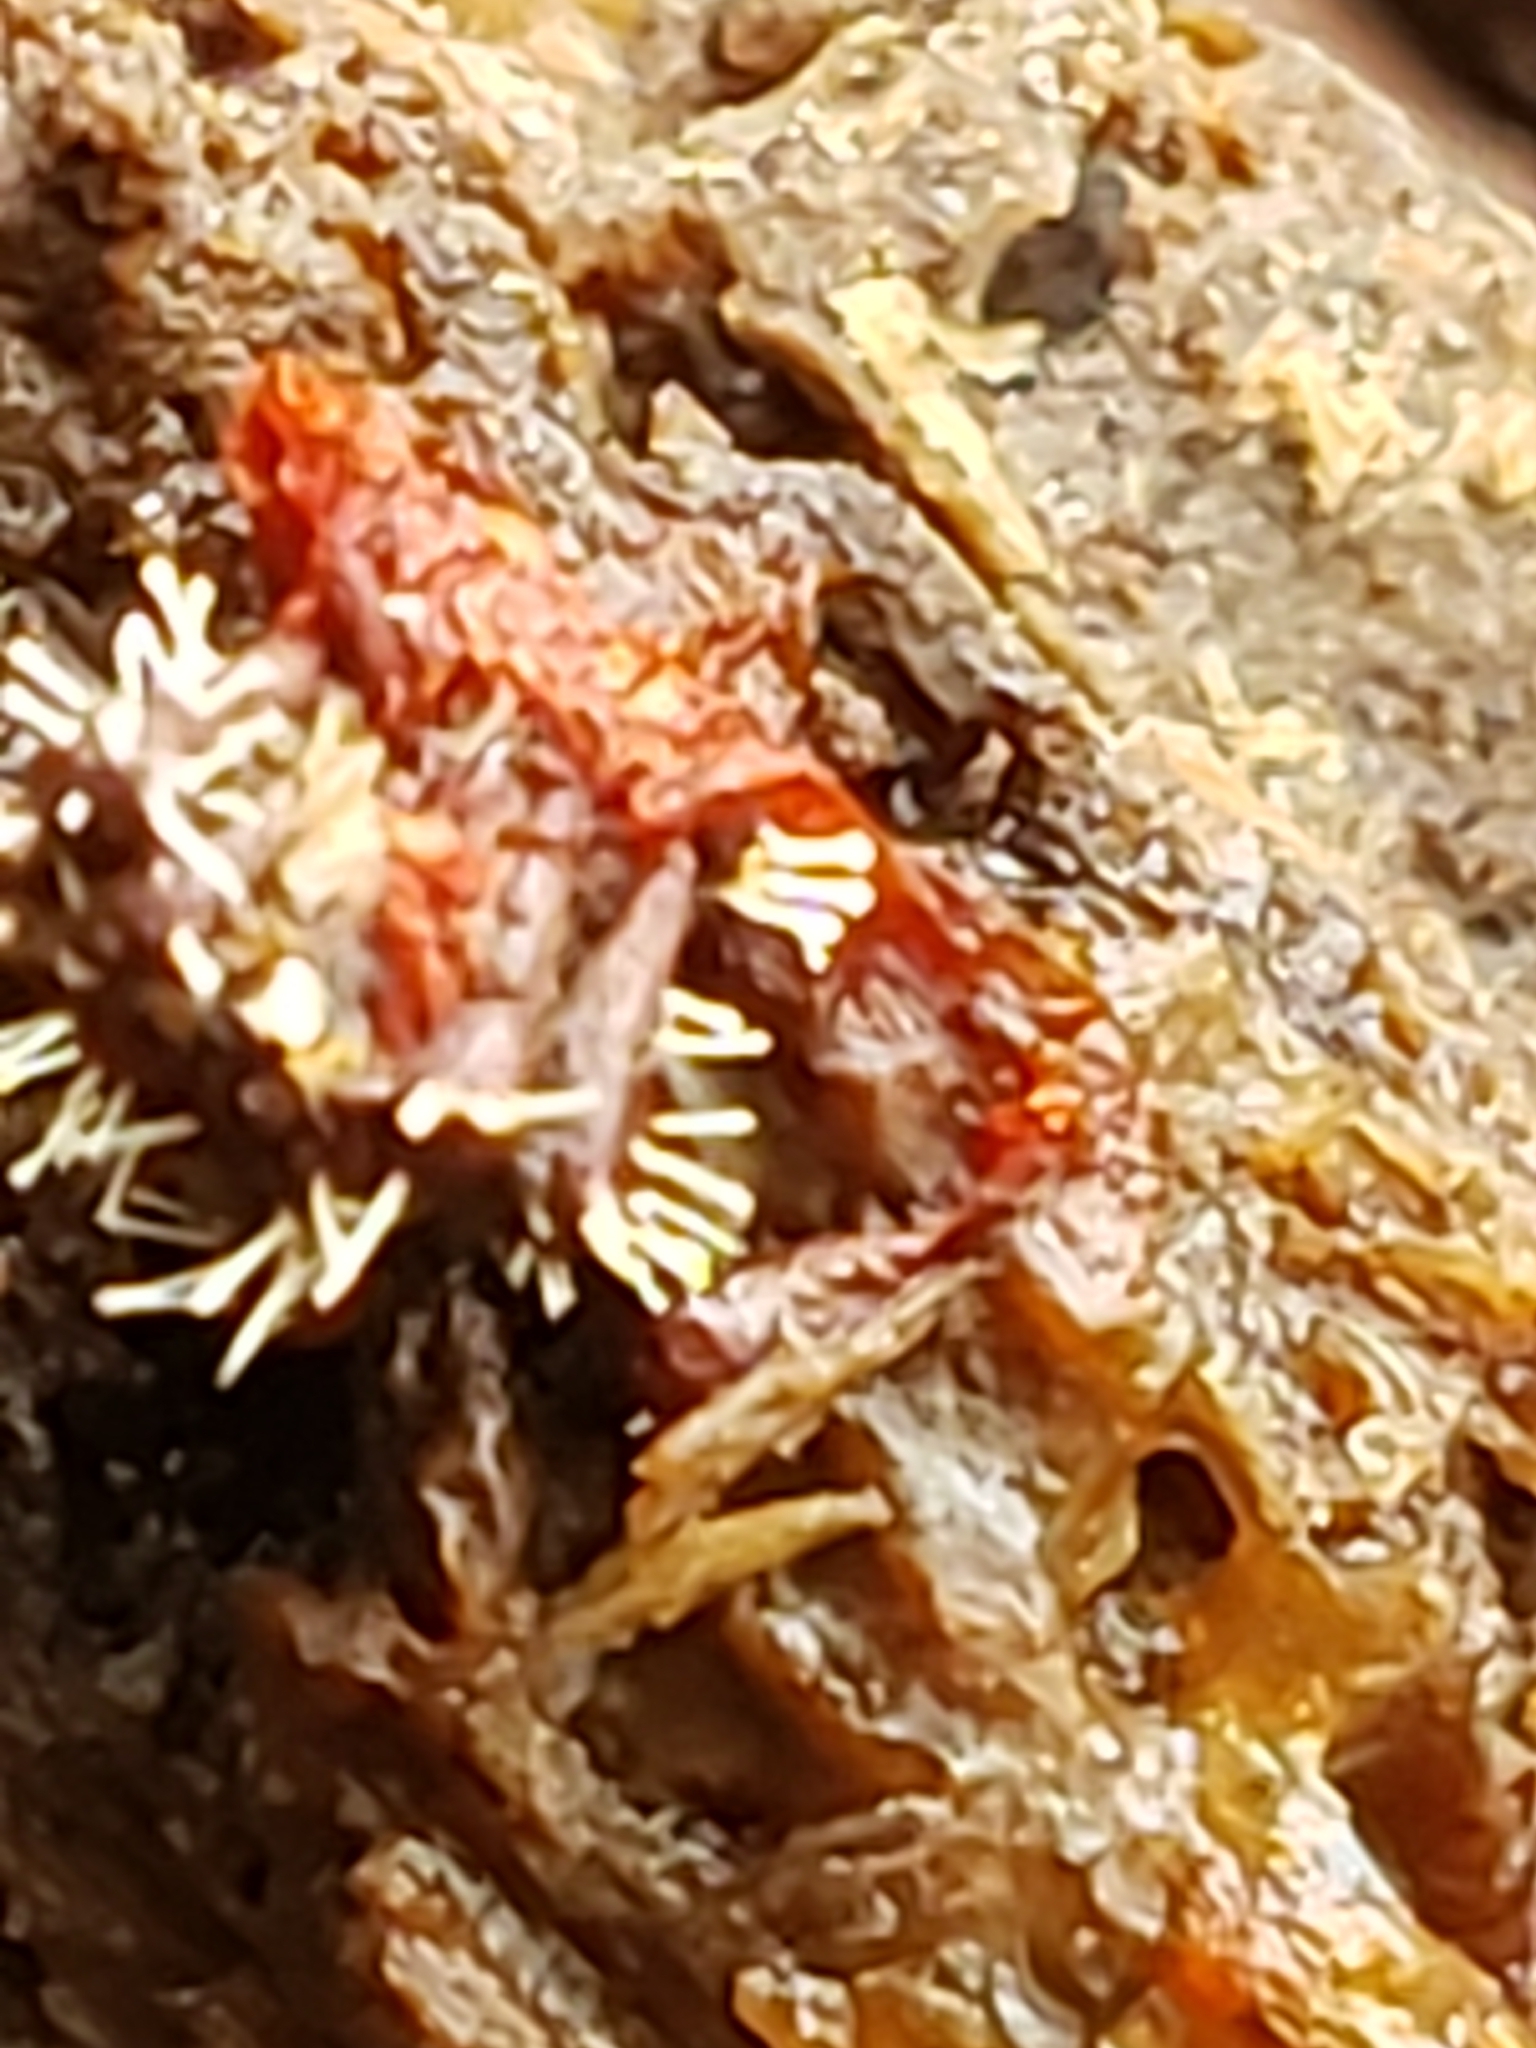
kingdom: Fungi
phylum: Ascomycota
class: Sordariomycetes
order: Hypocreales
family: Ophiocordycipitaceae
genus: Polycephalomyces
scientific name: Polycephalomyces tomentosus
